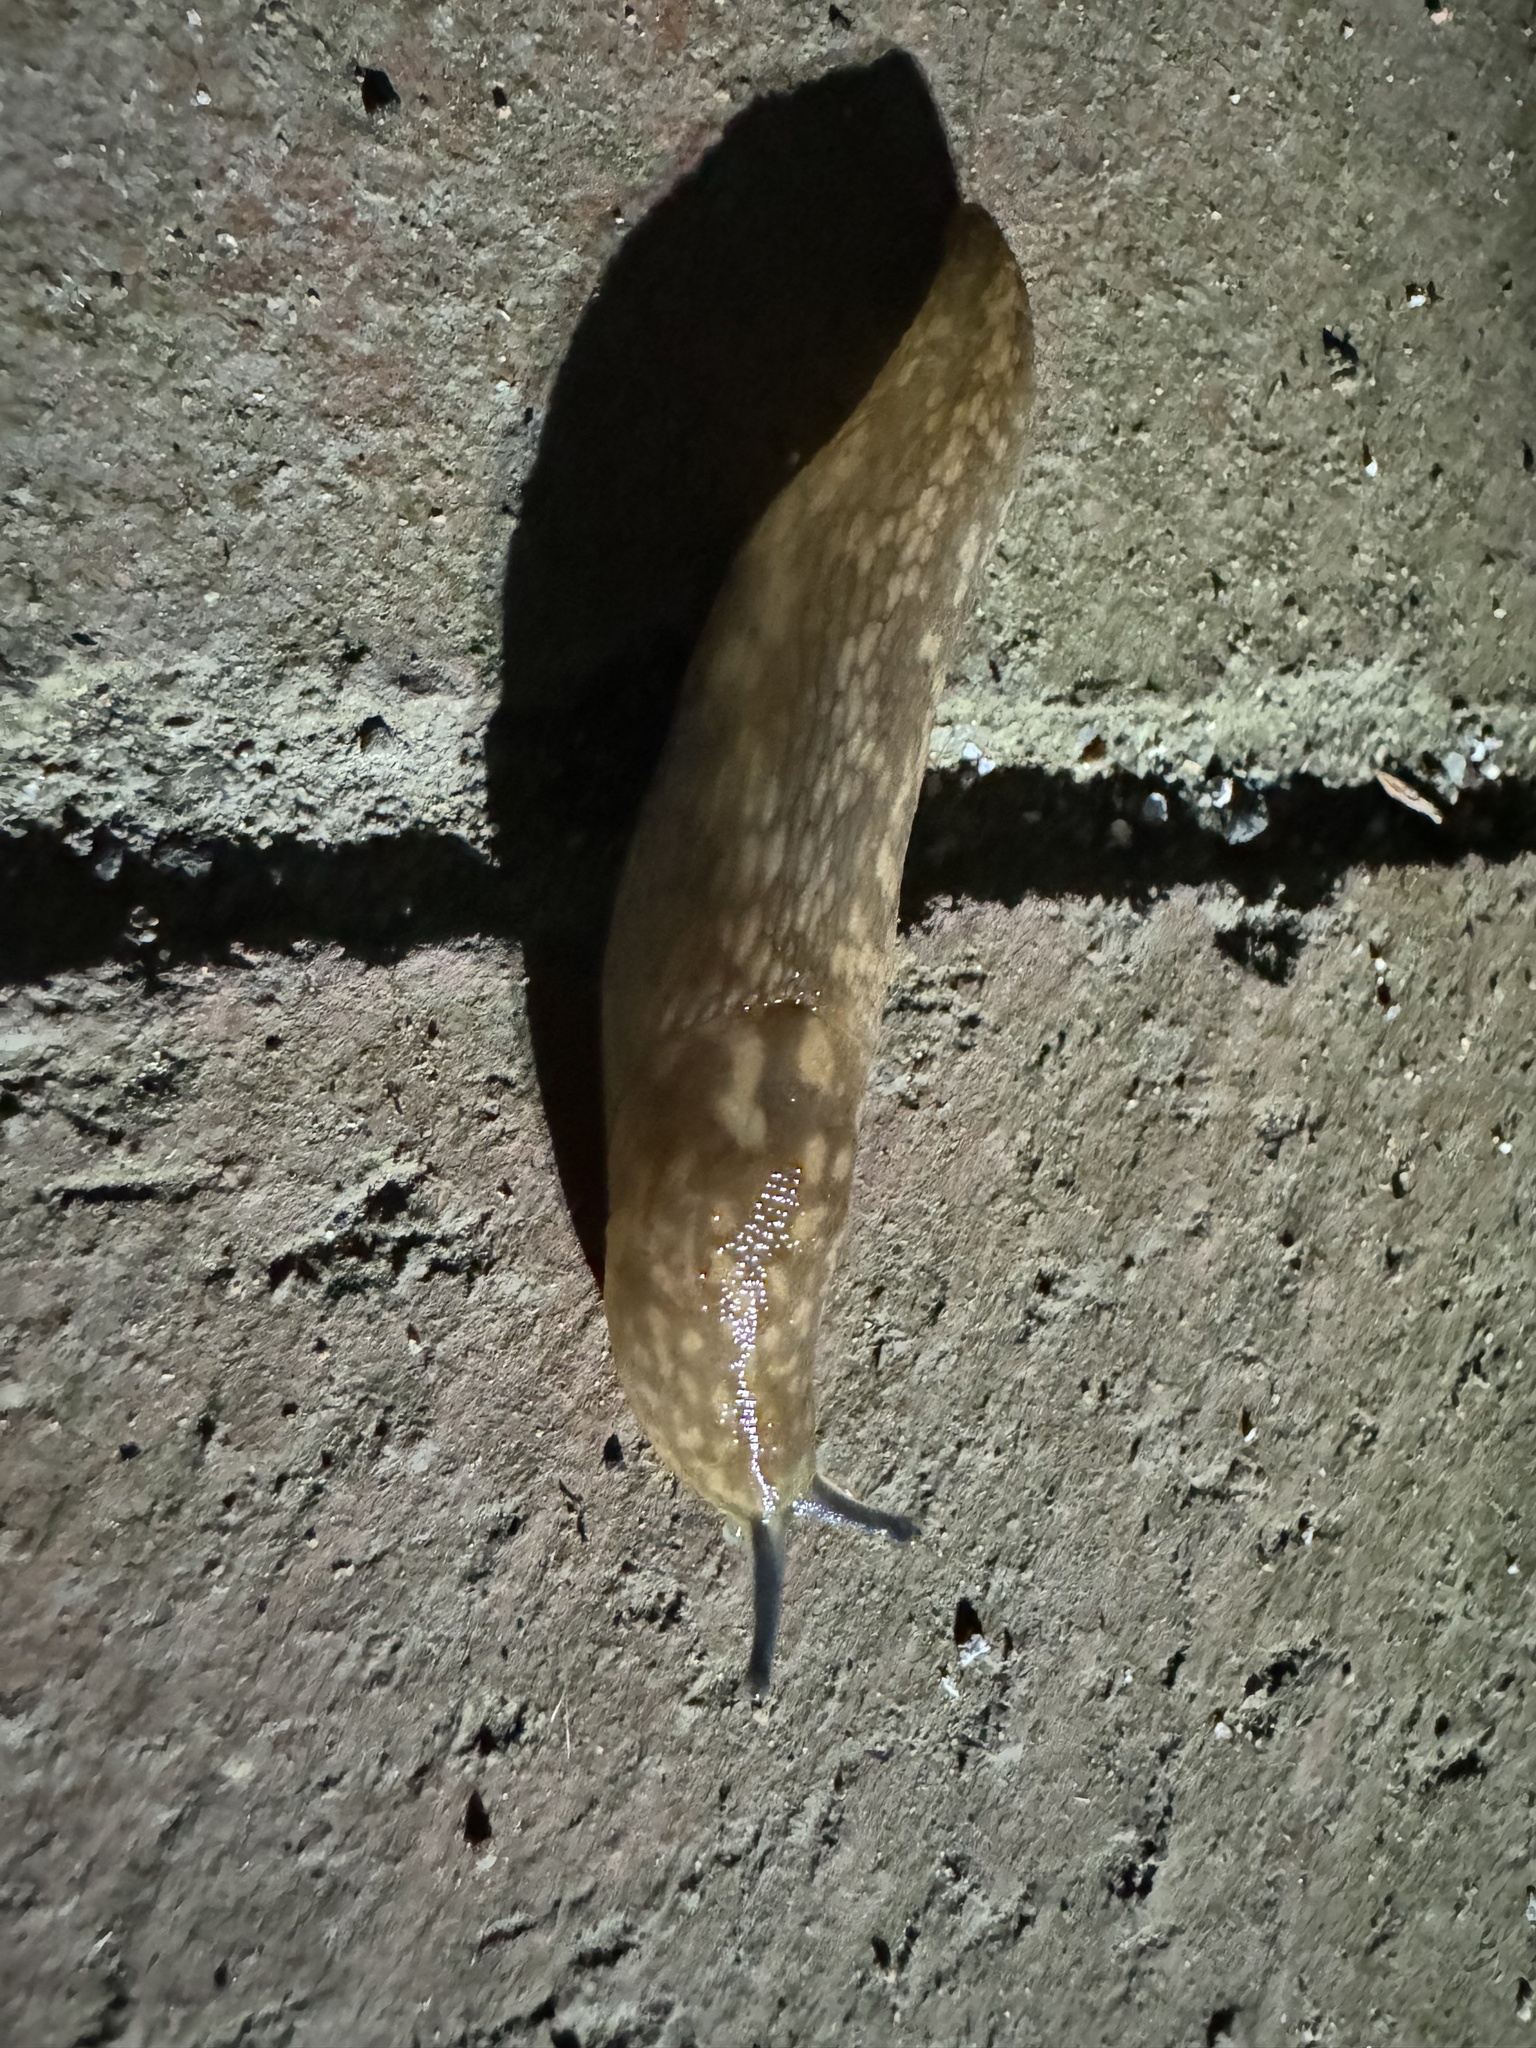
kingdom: Animalia
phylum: Mollusca
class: Gastropoda
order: Stylommatophora
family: Limacidae
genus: Limacus
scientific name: Limacus flavus
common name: Yellow gardenslug
